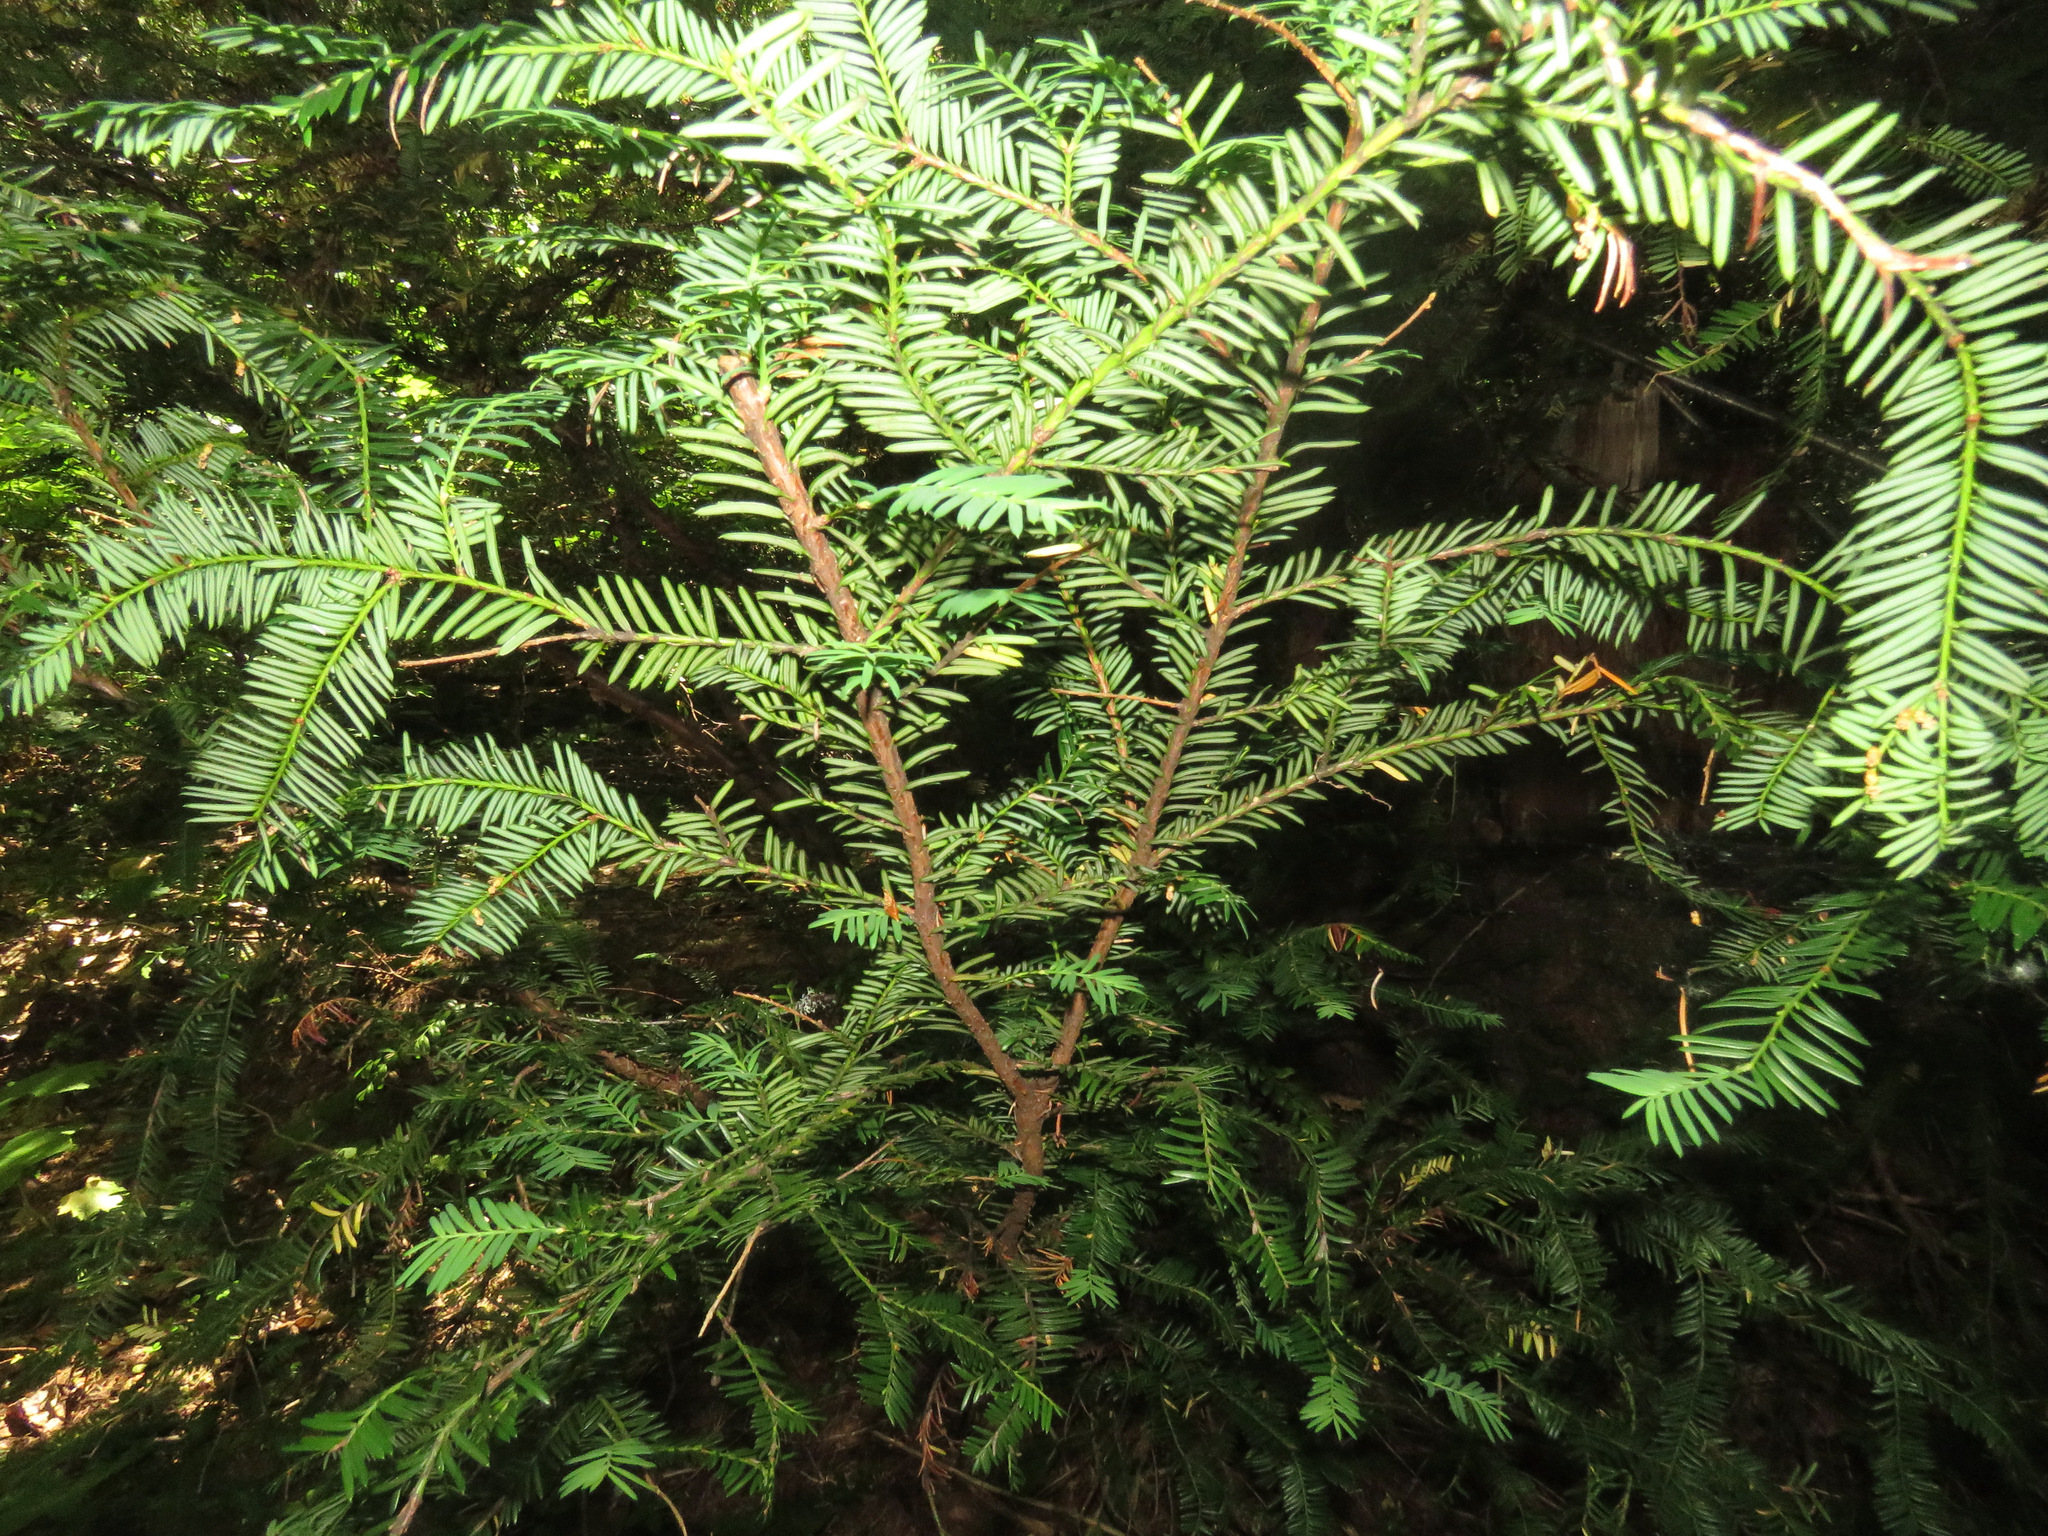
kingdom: Plantae
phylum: Tracheophyta
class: Pinopsida
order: Pinales
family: Taxaceae
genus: Taxus
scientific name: Taxus brevifolia
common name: Pacific yew
